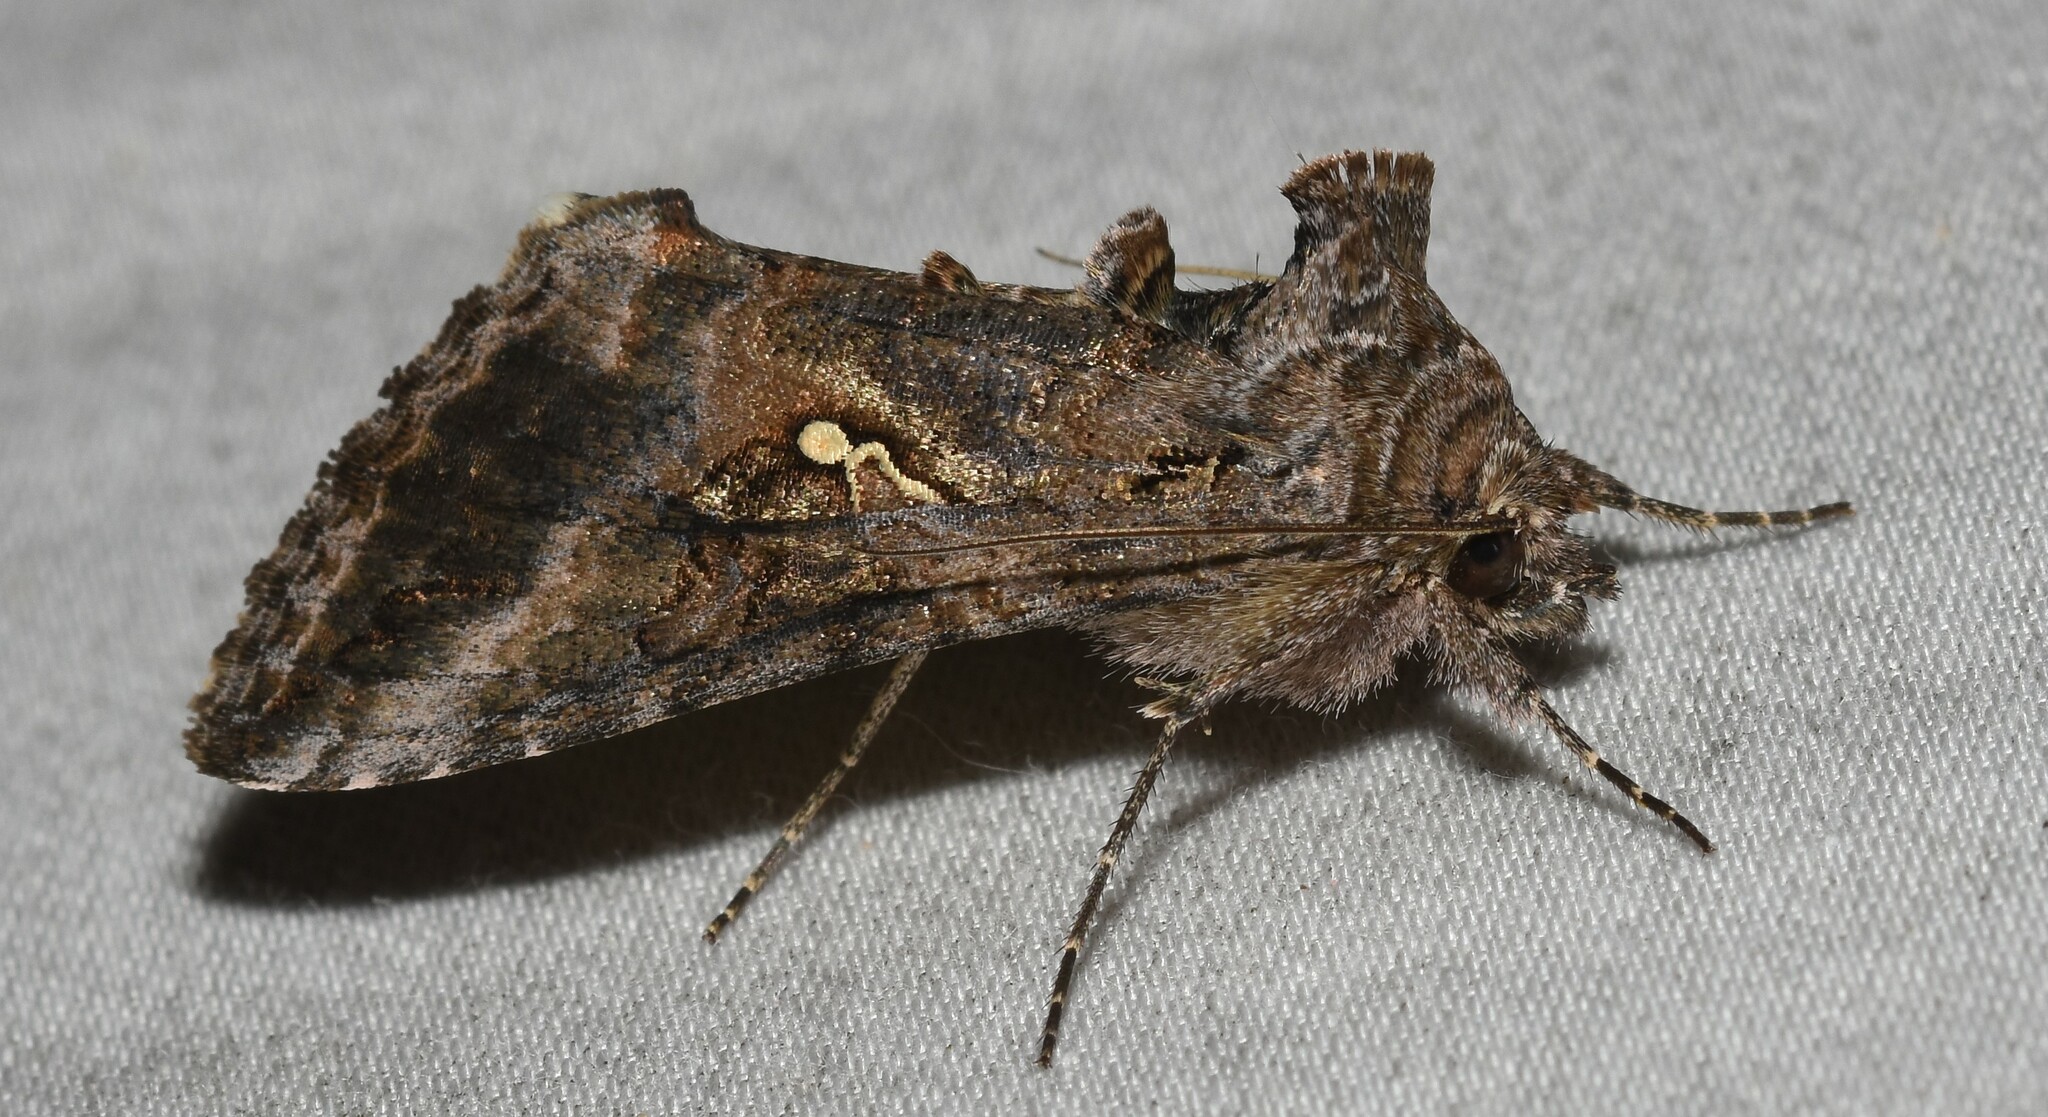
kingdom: Animalia
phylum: Arthropoda
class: Insecta
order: Lepidoptera
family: Noctuidae
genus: Rachiplusia
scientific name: Rachiplusia ou
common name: Gray looper moth
